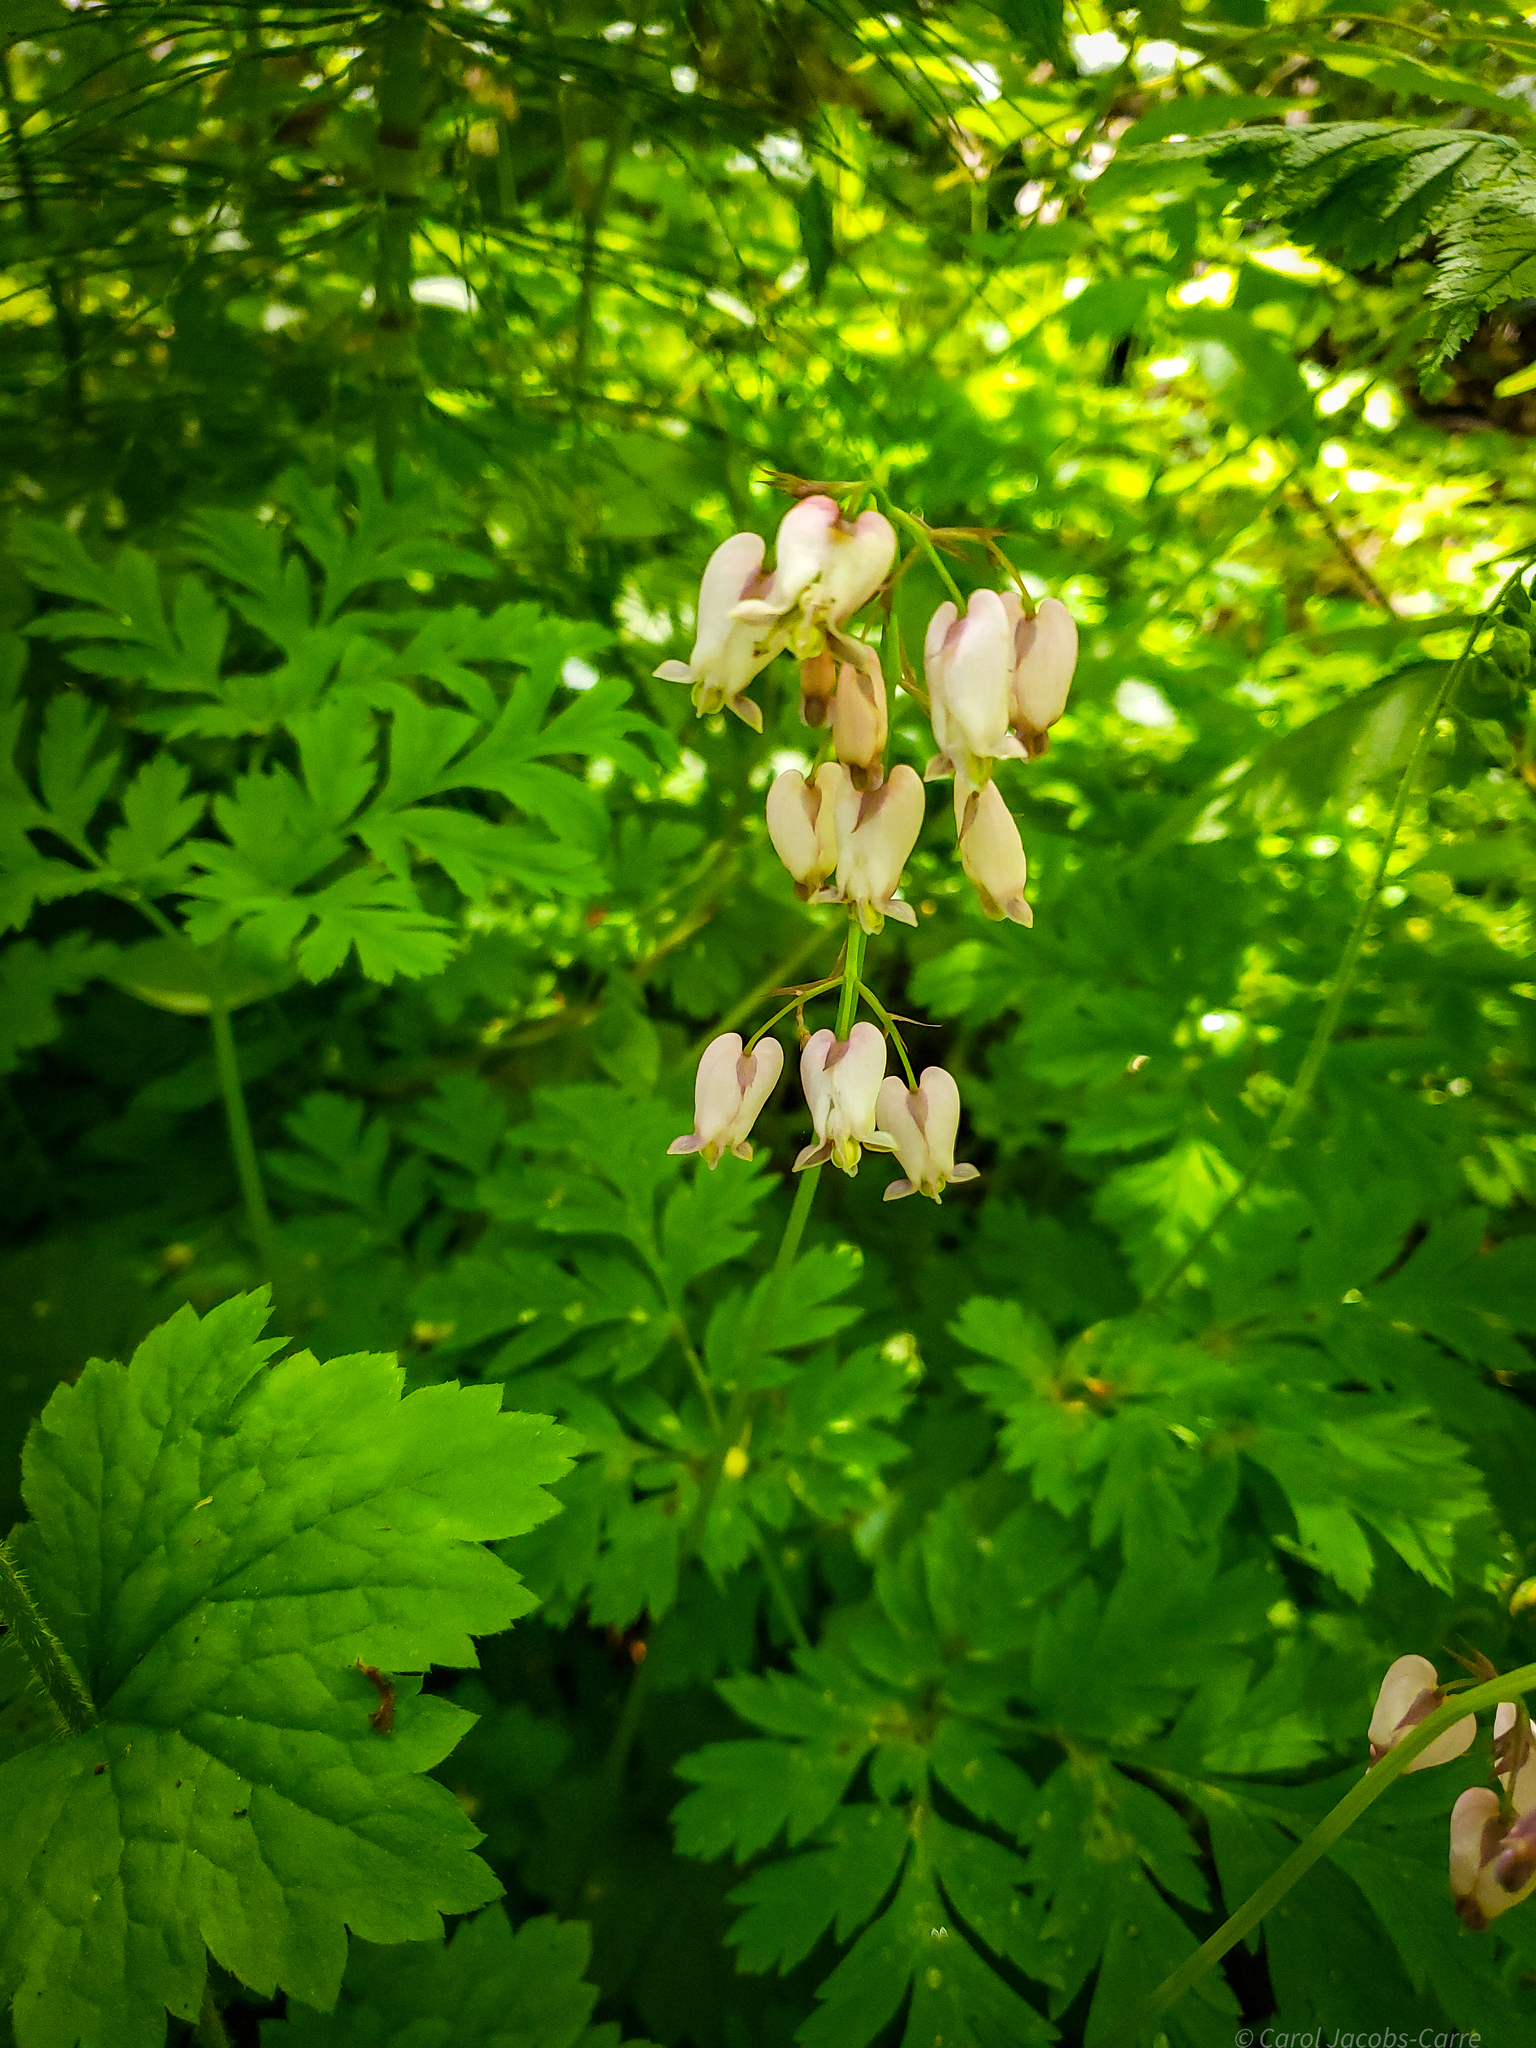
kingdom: Plantae
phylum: Tracheophyta
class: Magnoliopsida
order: Ranunculales
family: Papaveraceae
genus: Dicentra
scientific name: Dicentra formosa
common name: Bleeding-heart
